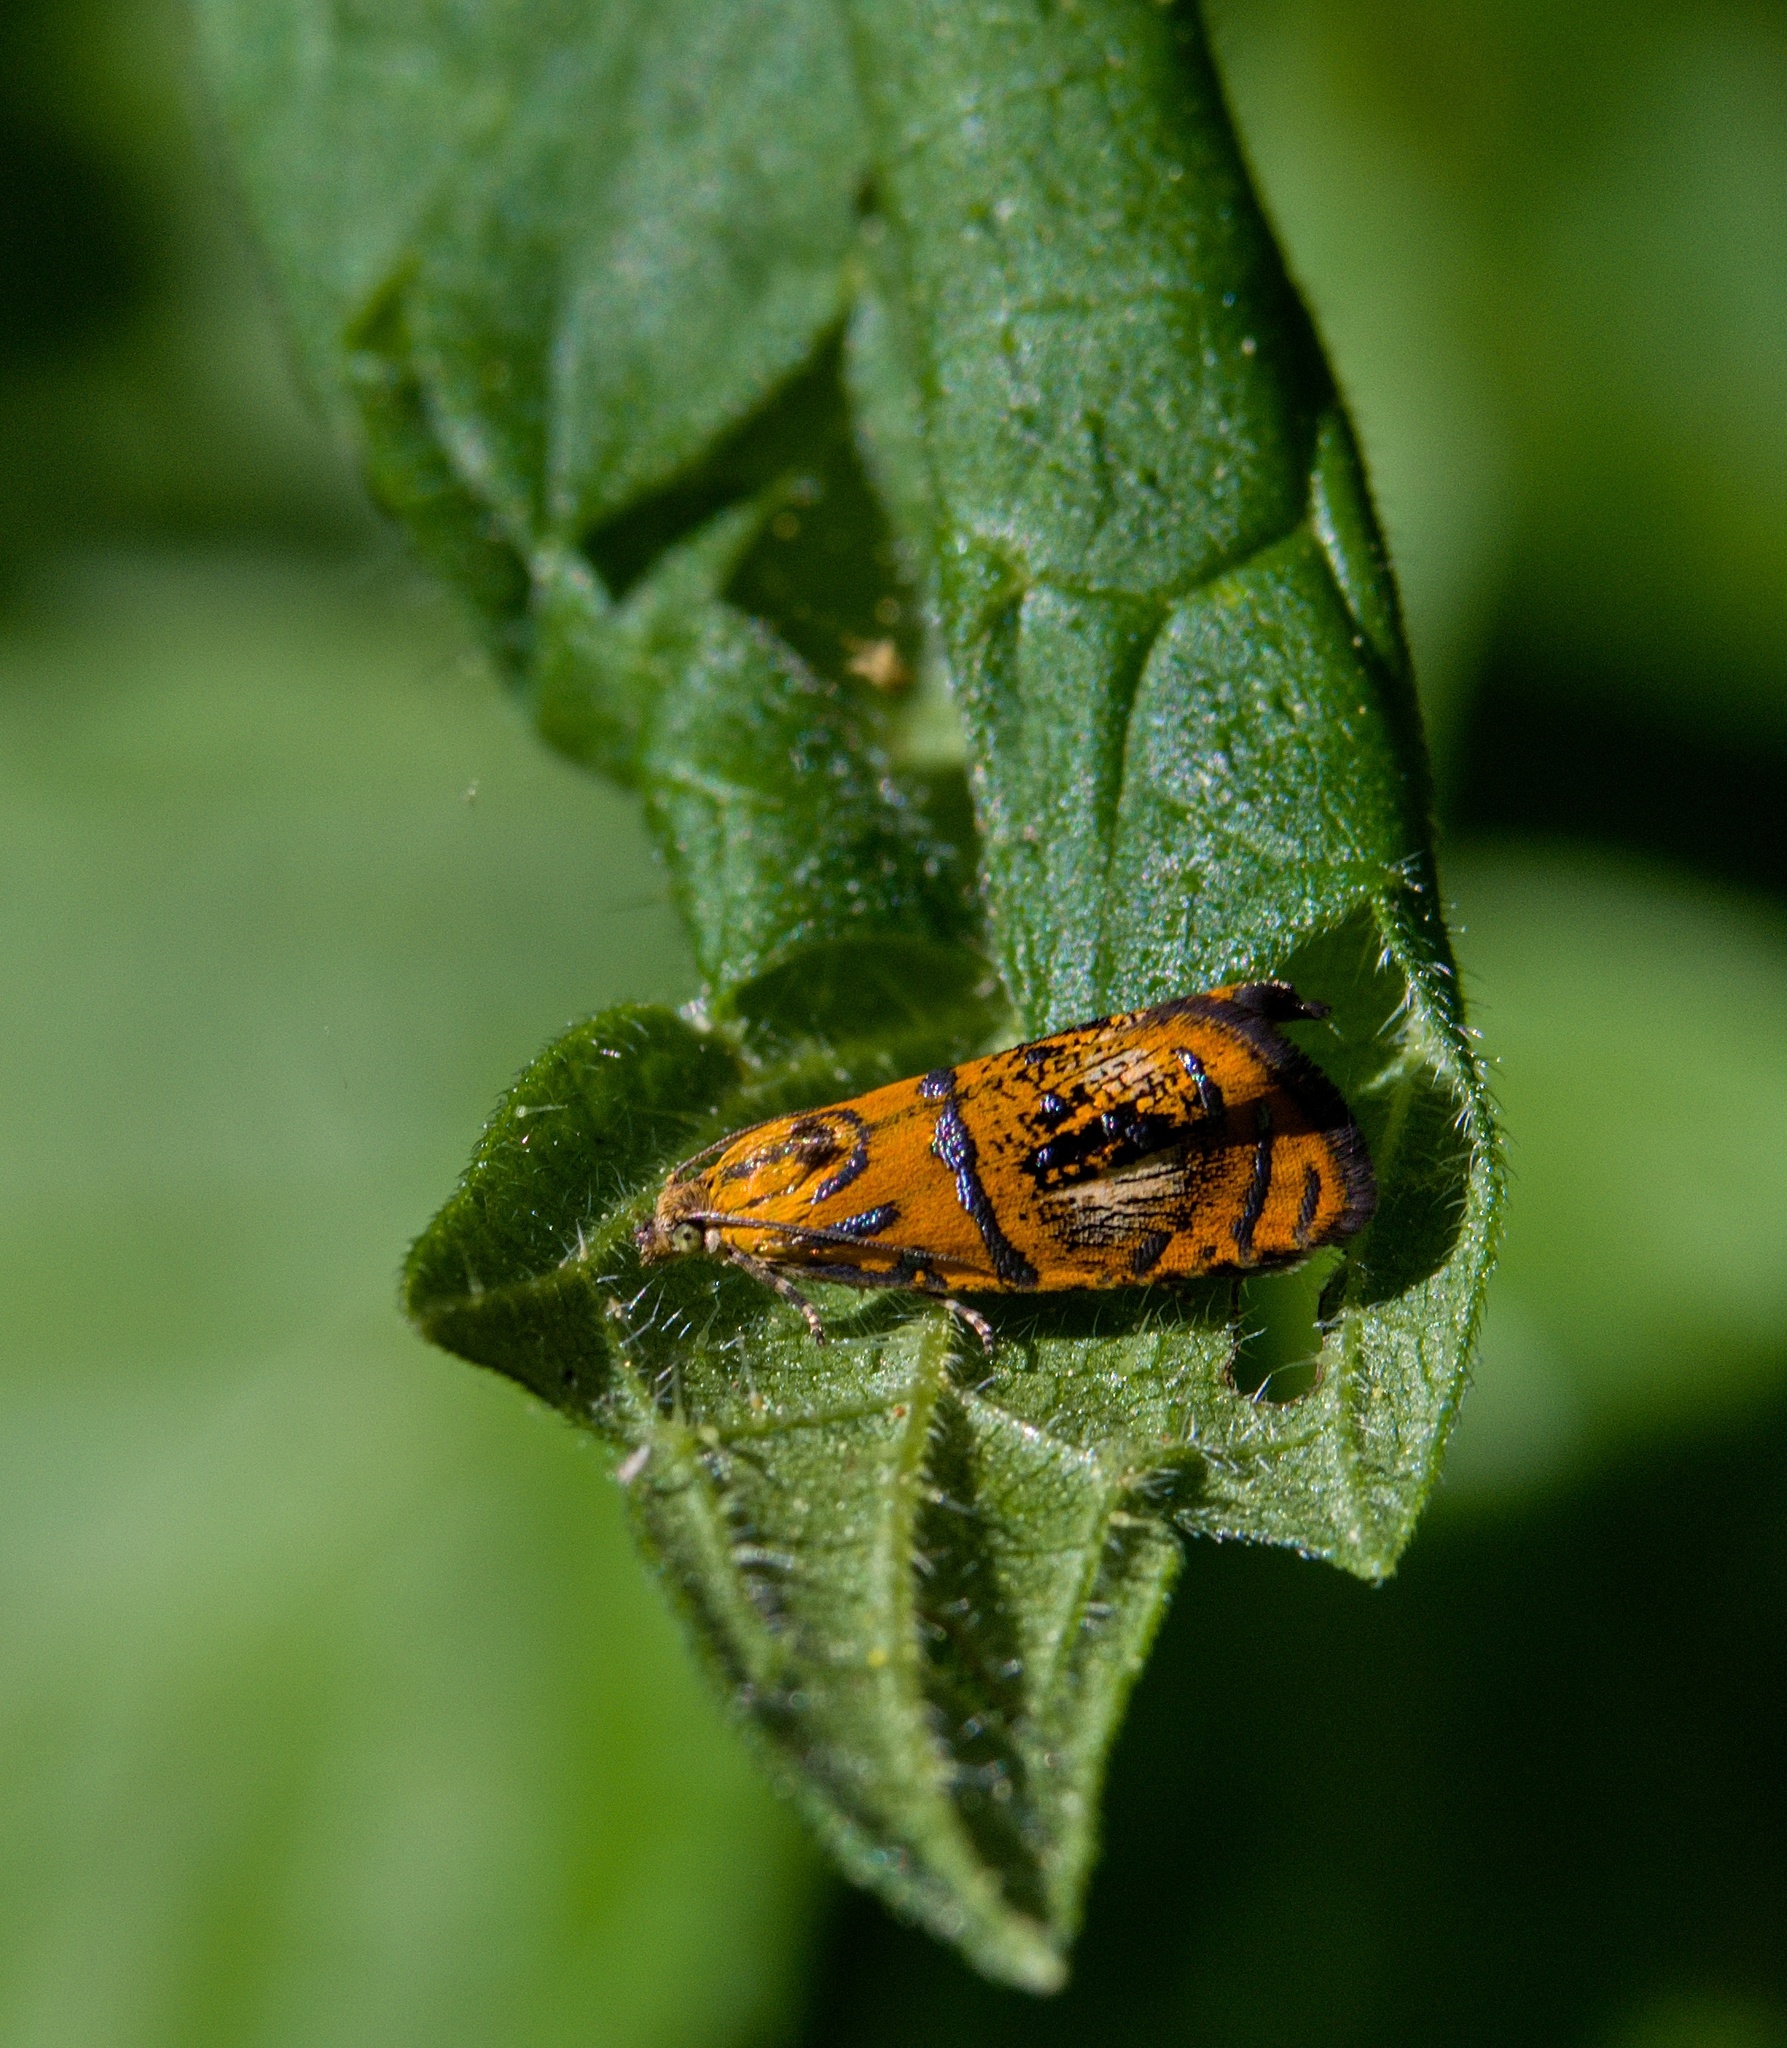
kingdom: Animalia
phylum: Arthropoda
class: Insecta
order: Lepidoptera
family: Tortricidae
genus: Olethreutes
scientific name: Olethreutes arcuella
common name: Arched marble
